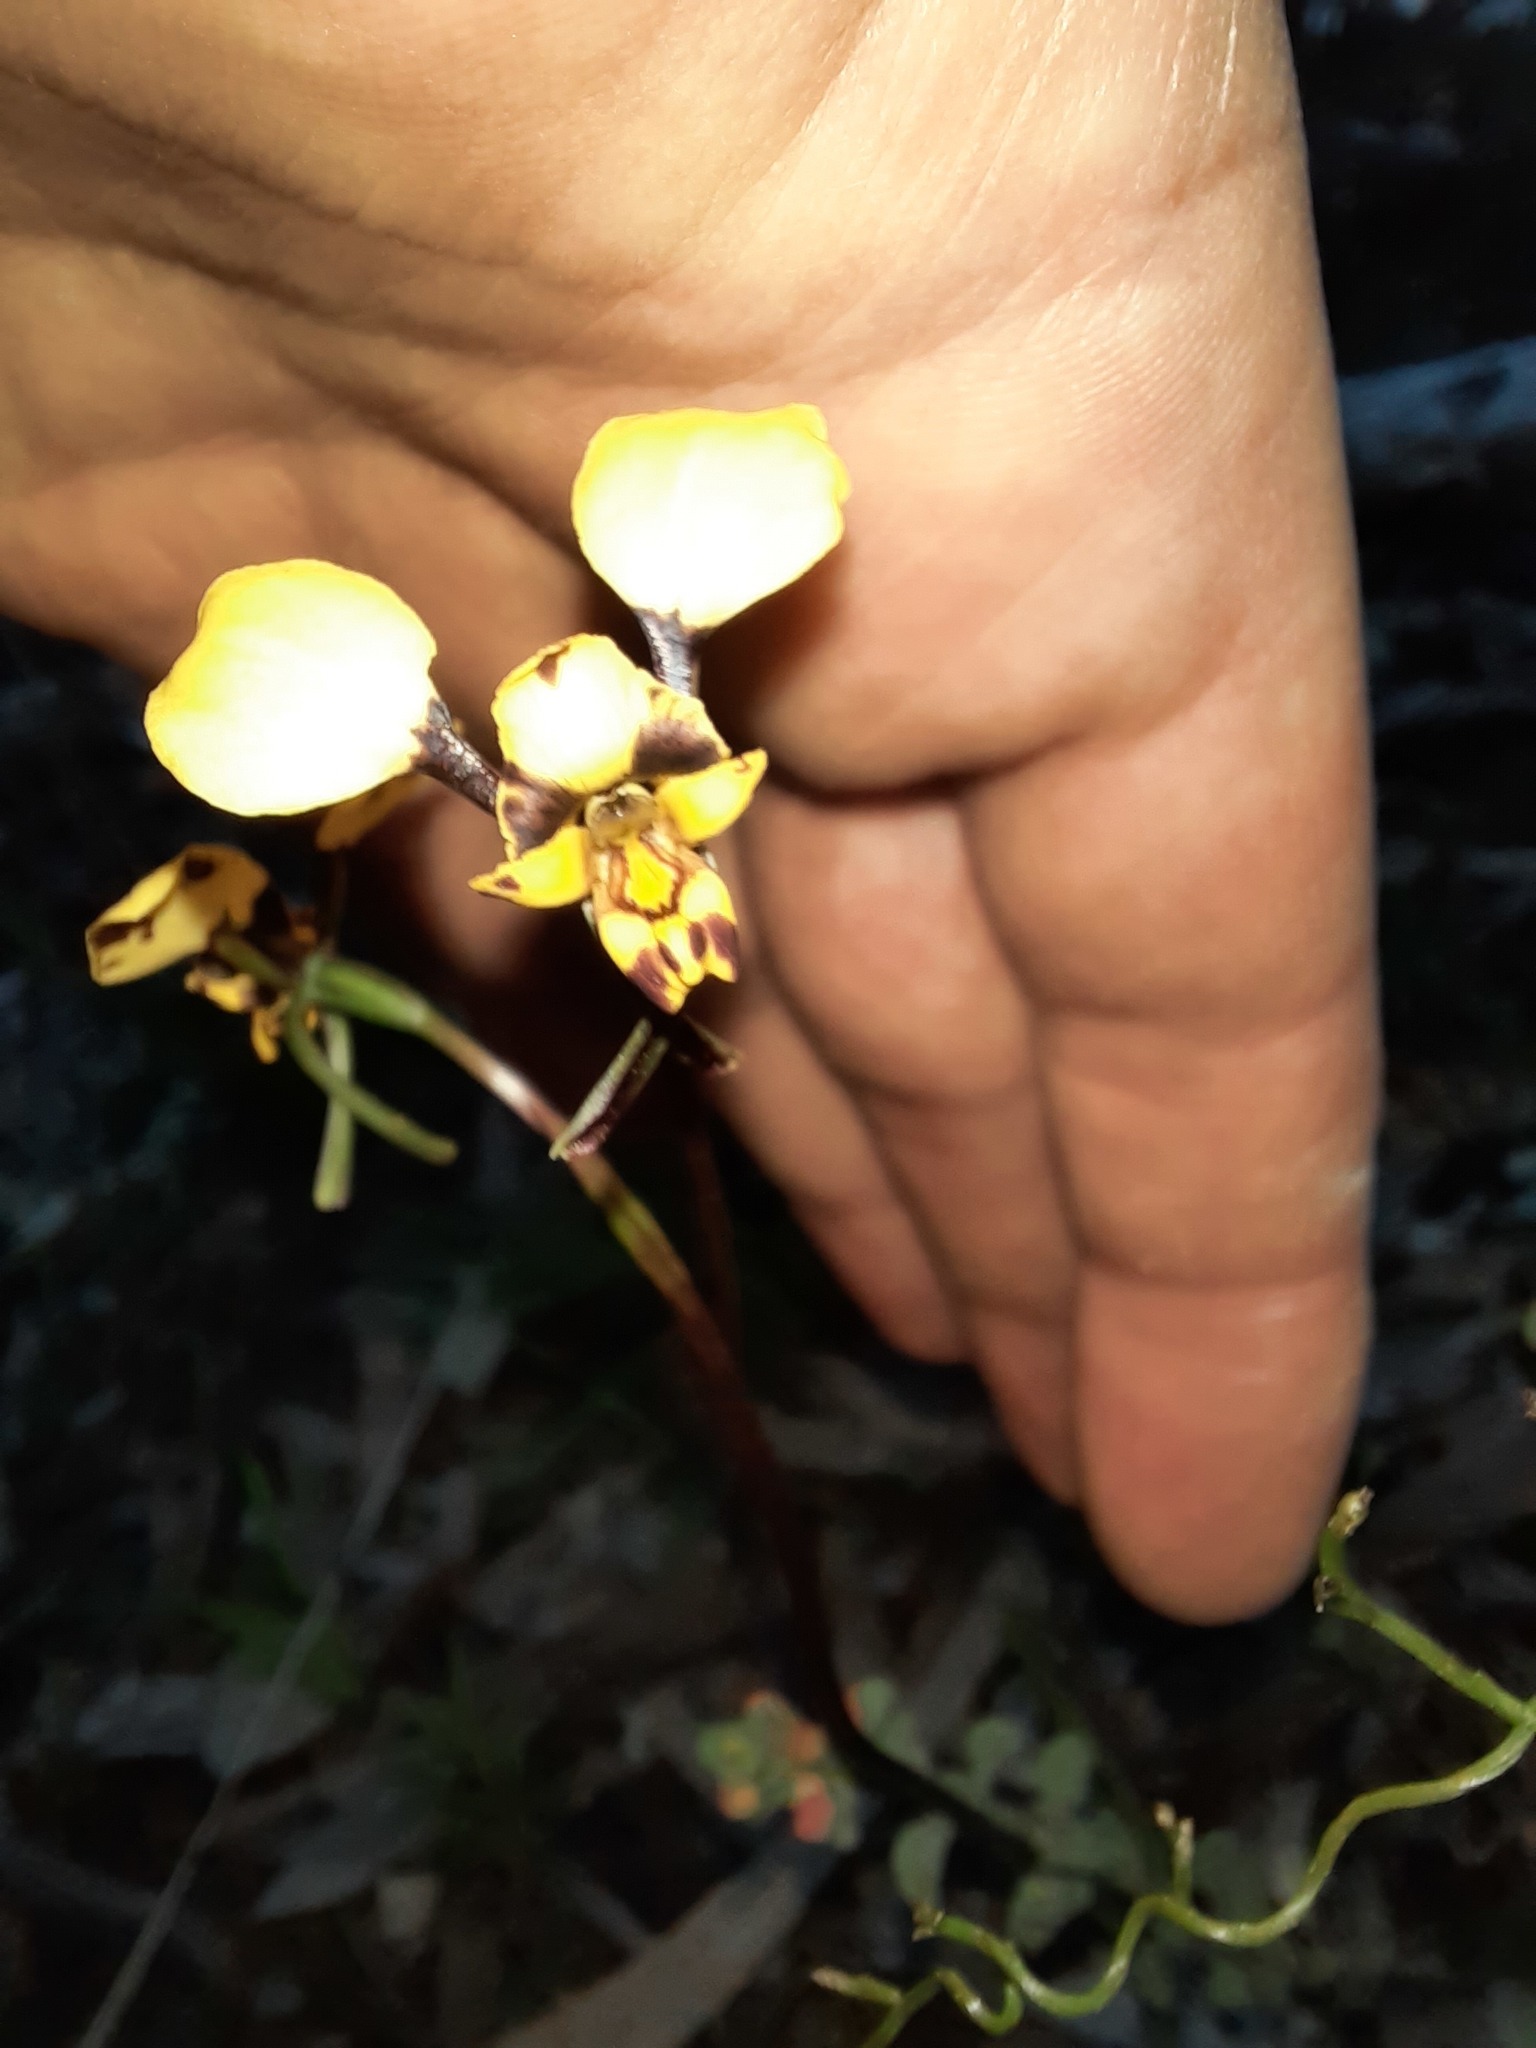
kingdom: Plantae
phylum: Tracheophyta
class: Liliopsida
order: Asparagales
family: Orchidaceae
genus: Diuris
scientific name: Diuris pardina
